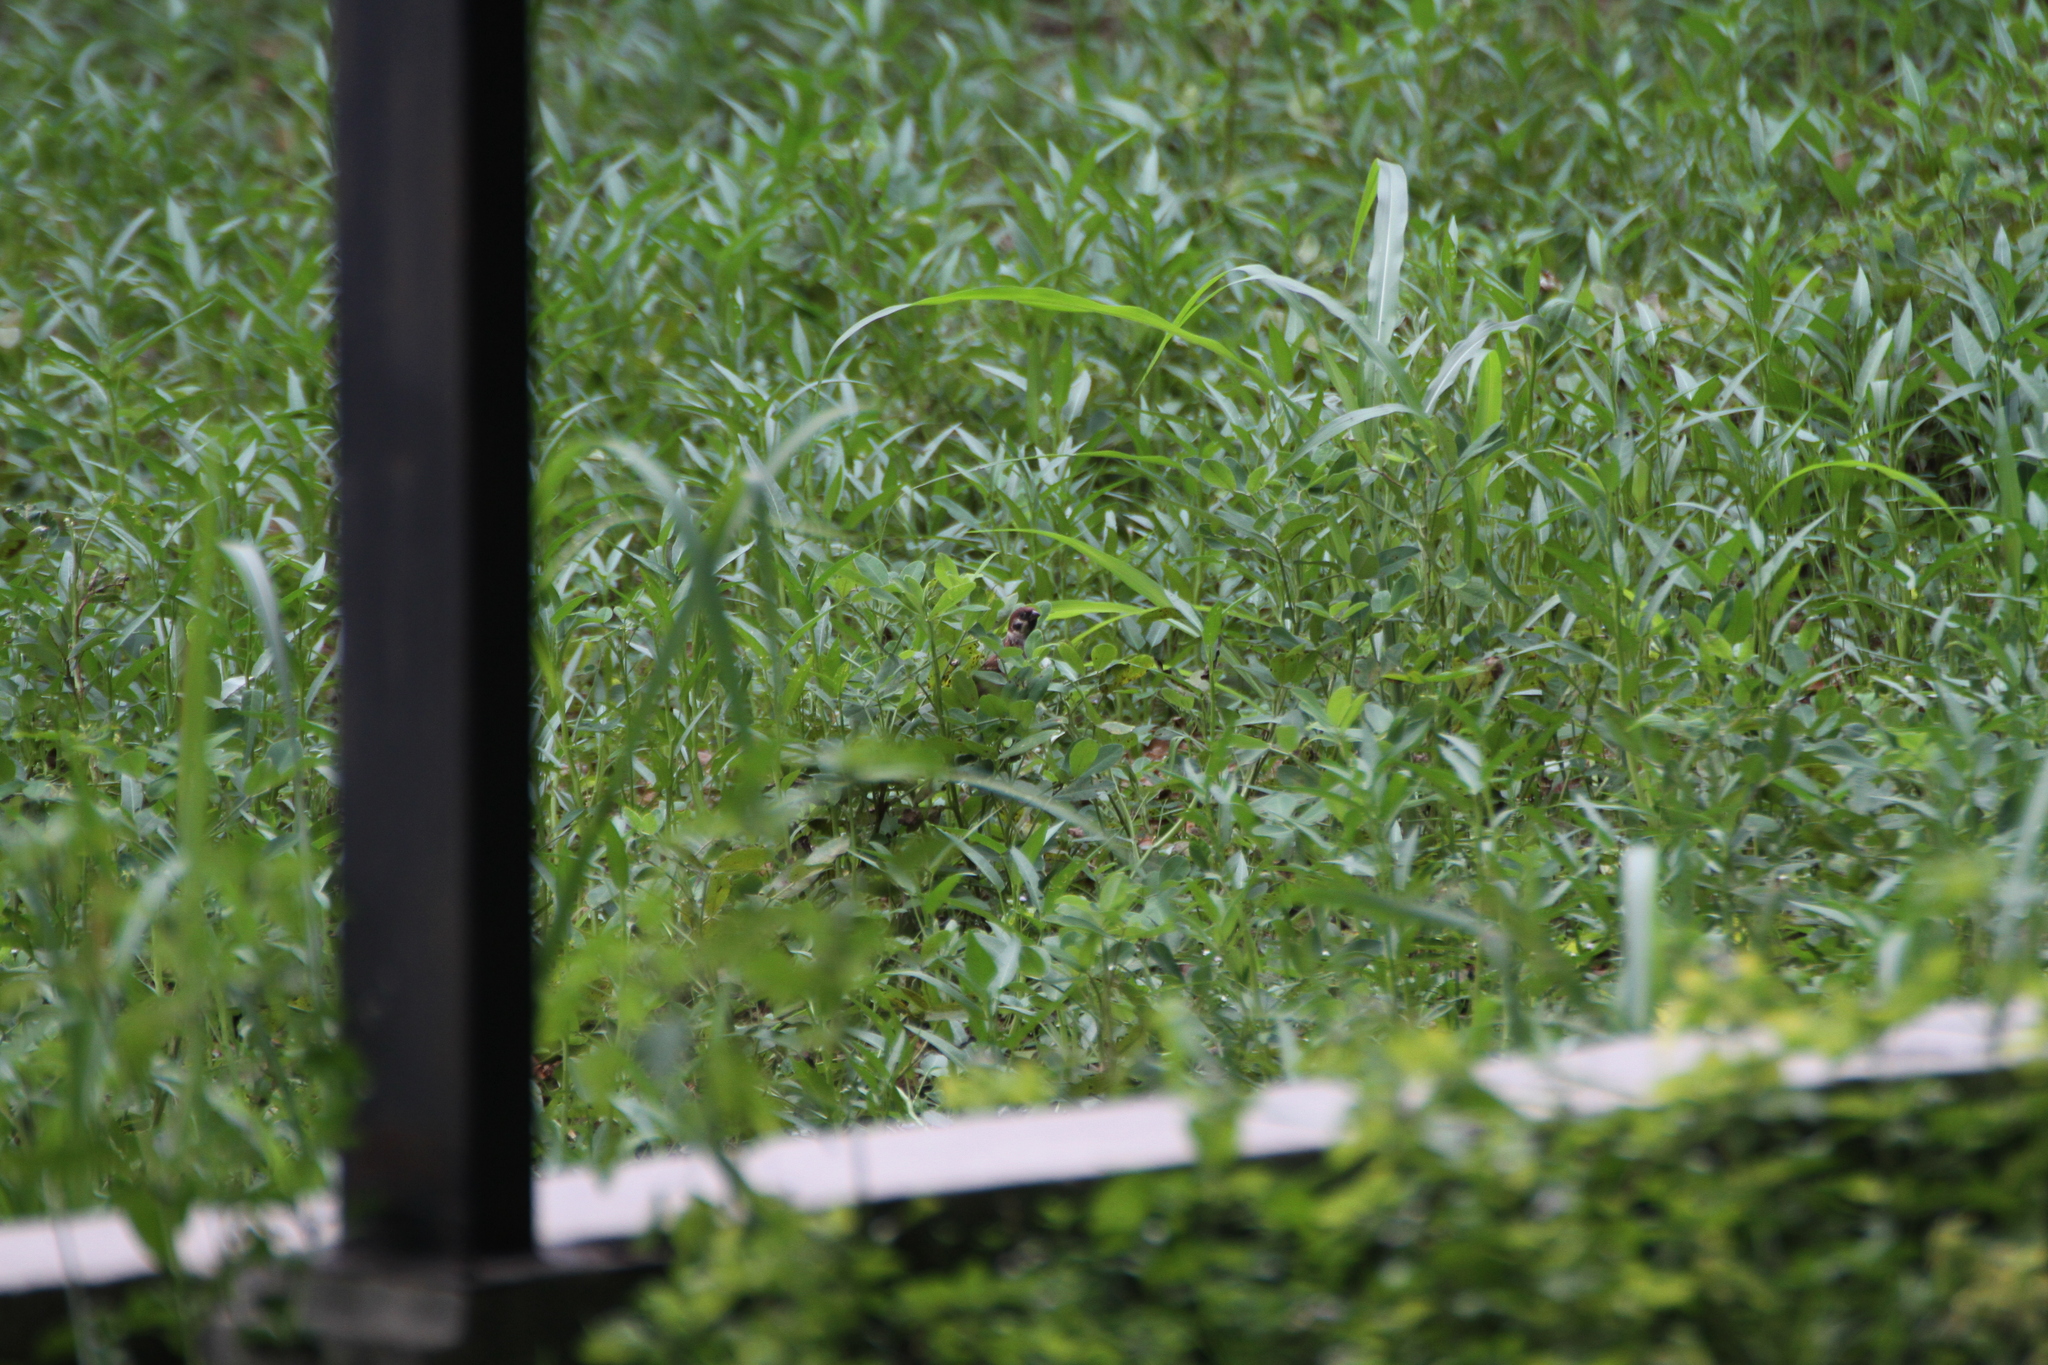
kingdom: Animalia
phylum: Chordata
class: Aves
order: Passeriformes
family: Passeridae
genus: Passer
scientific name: Passer montanus
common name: Eurasian tree sparrow
